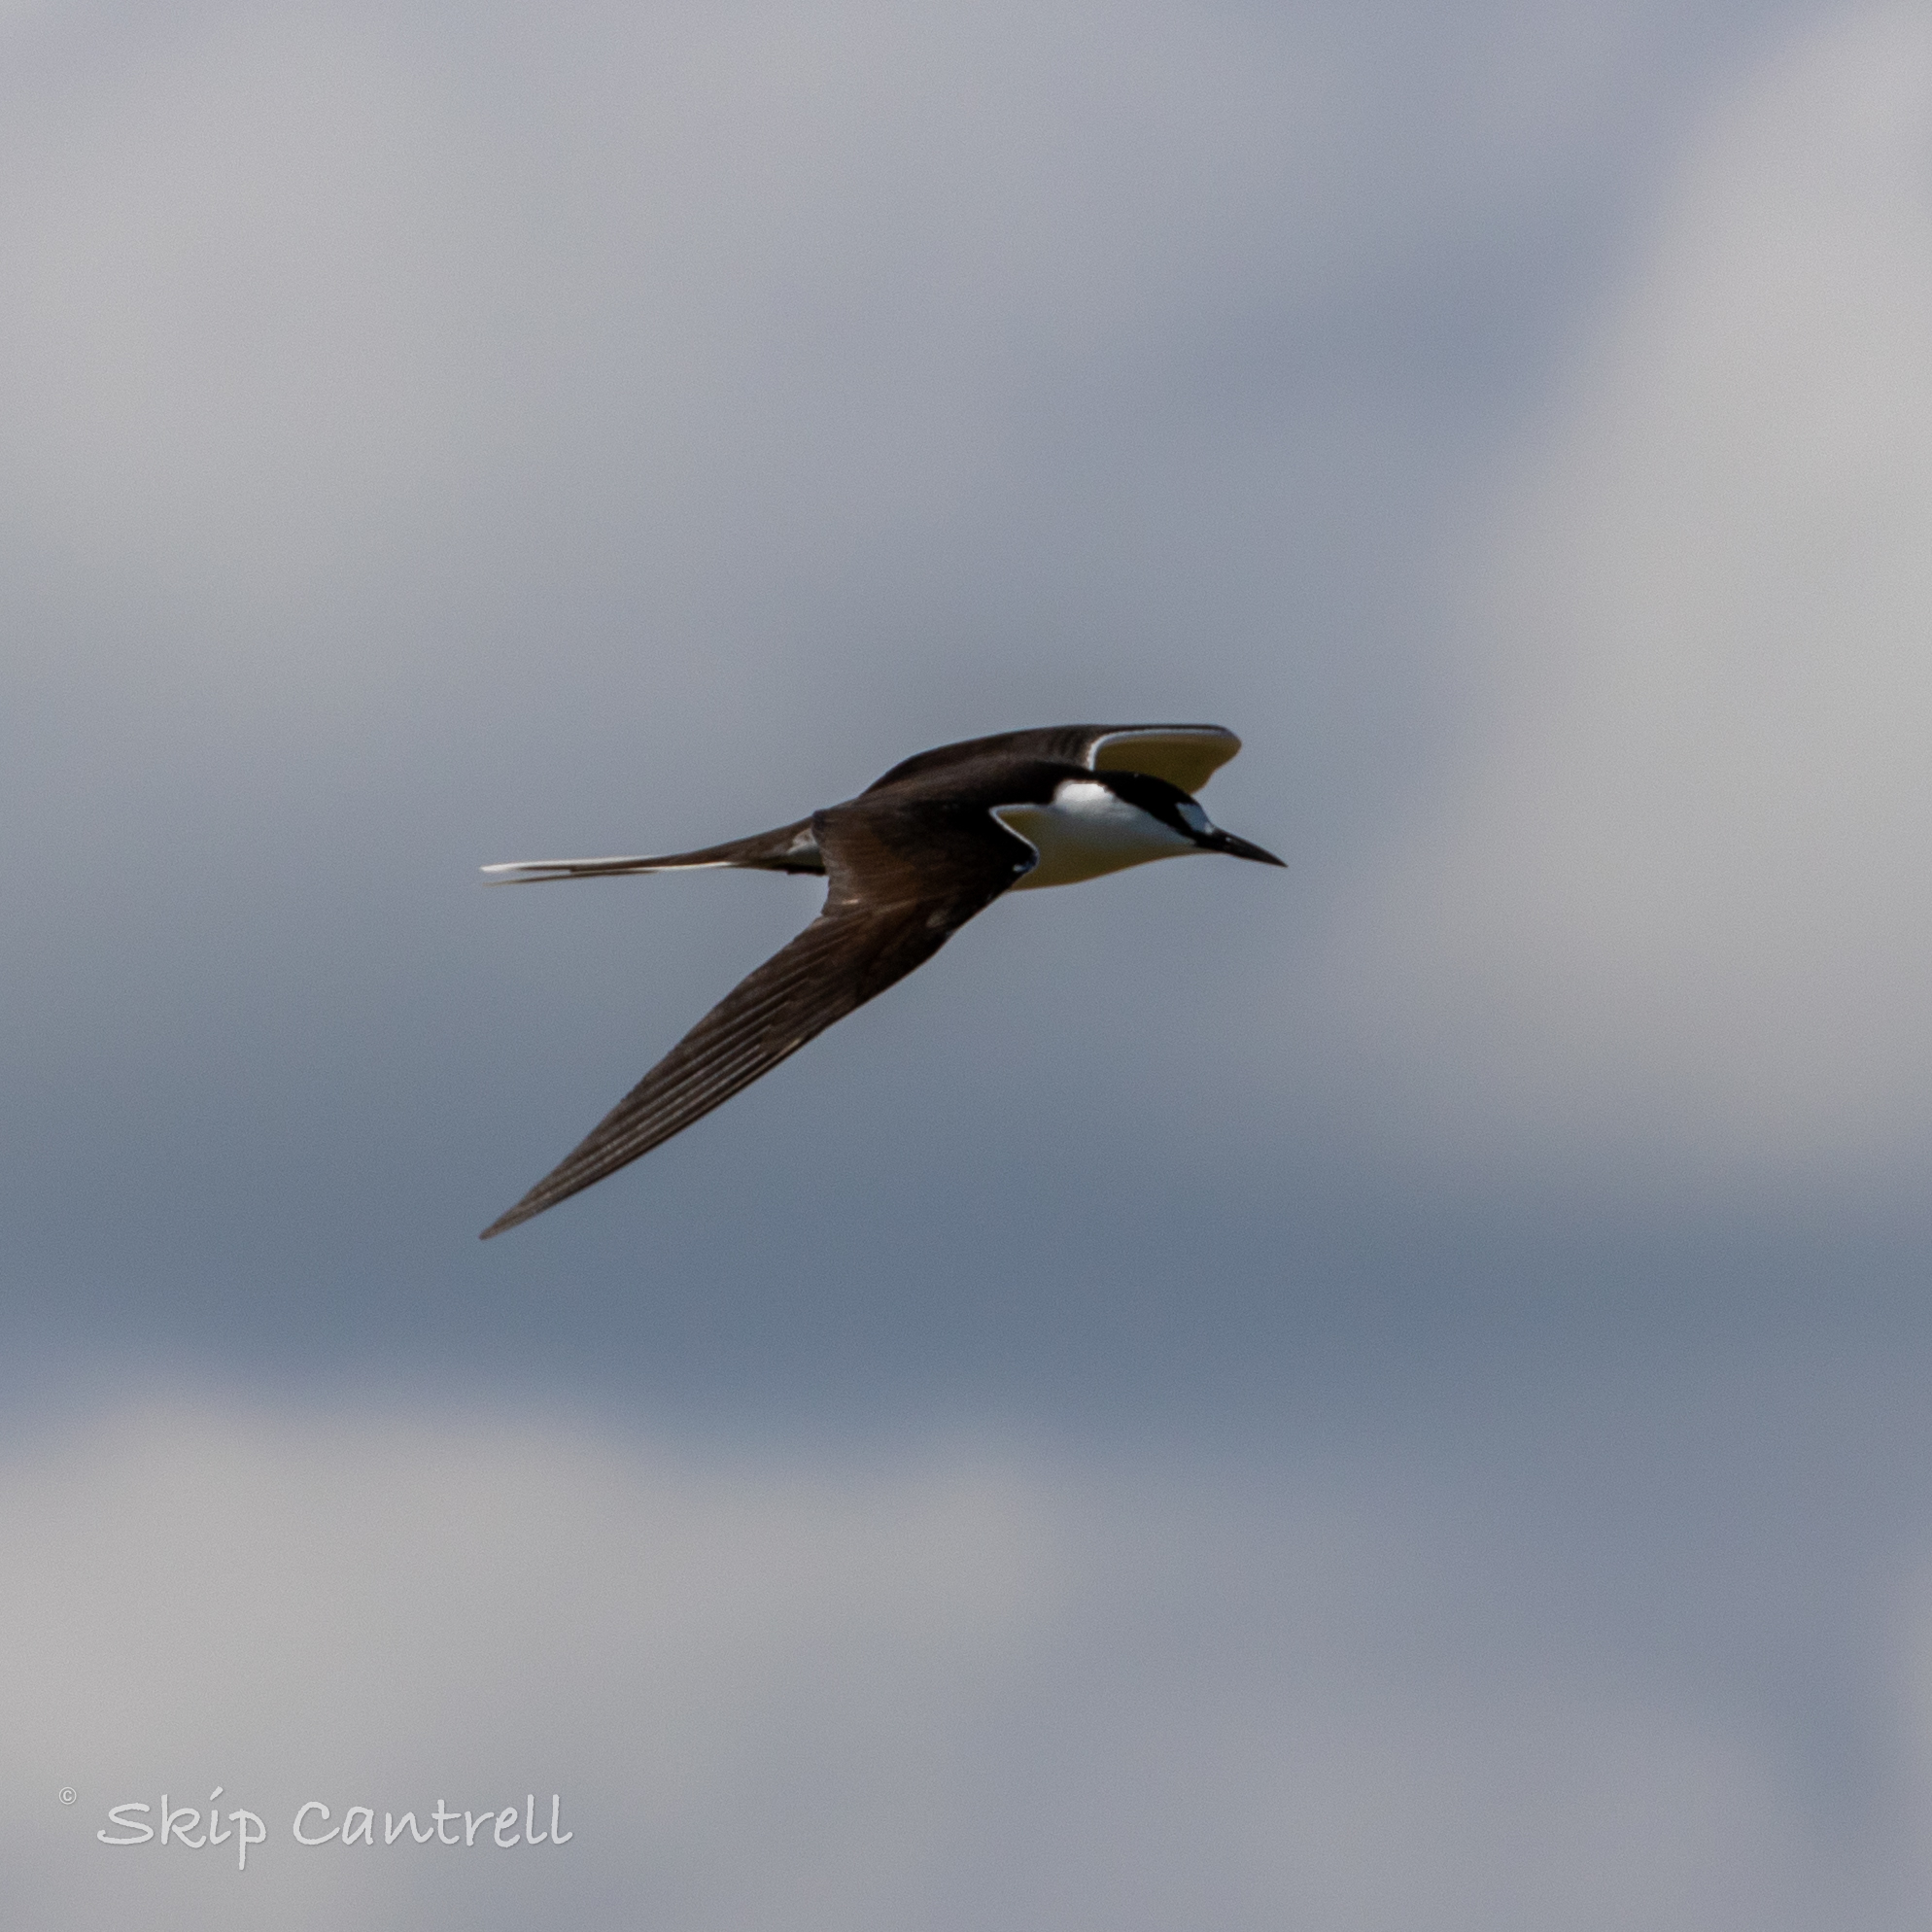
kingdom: Animalia
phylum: Chordata
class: Aves
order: Charadriiformes
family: Laridae
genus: Onychoprion
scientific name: Onychoprion fuscatus
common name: Sooty tern
